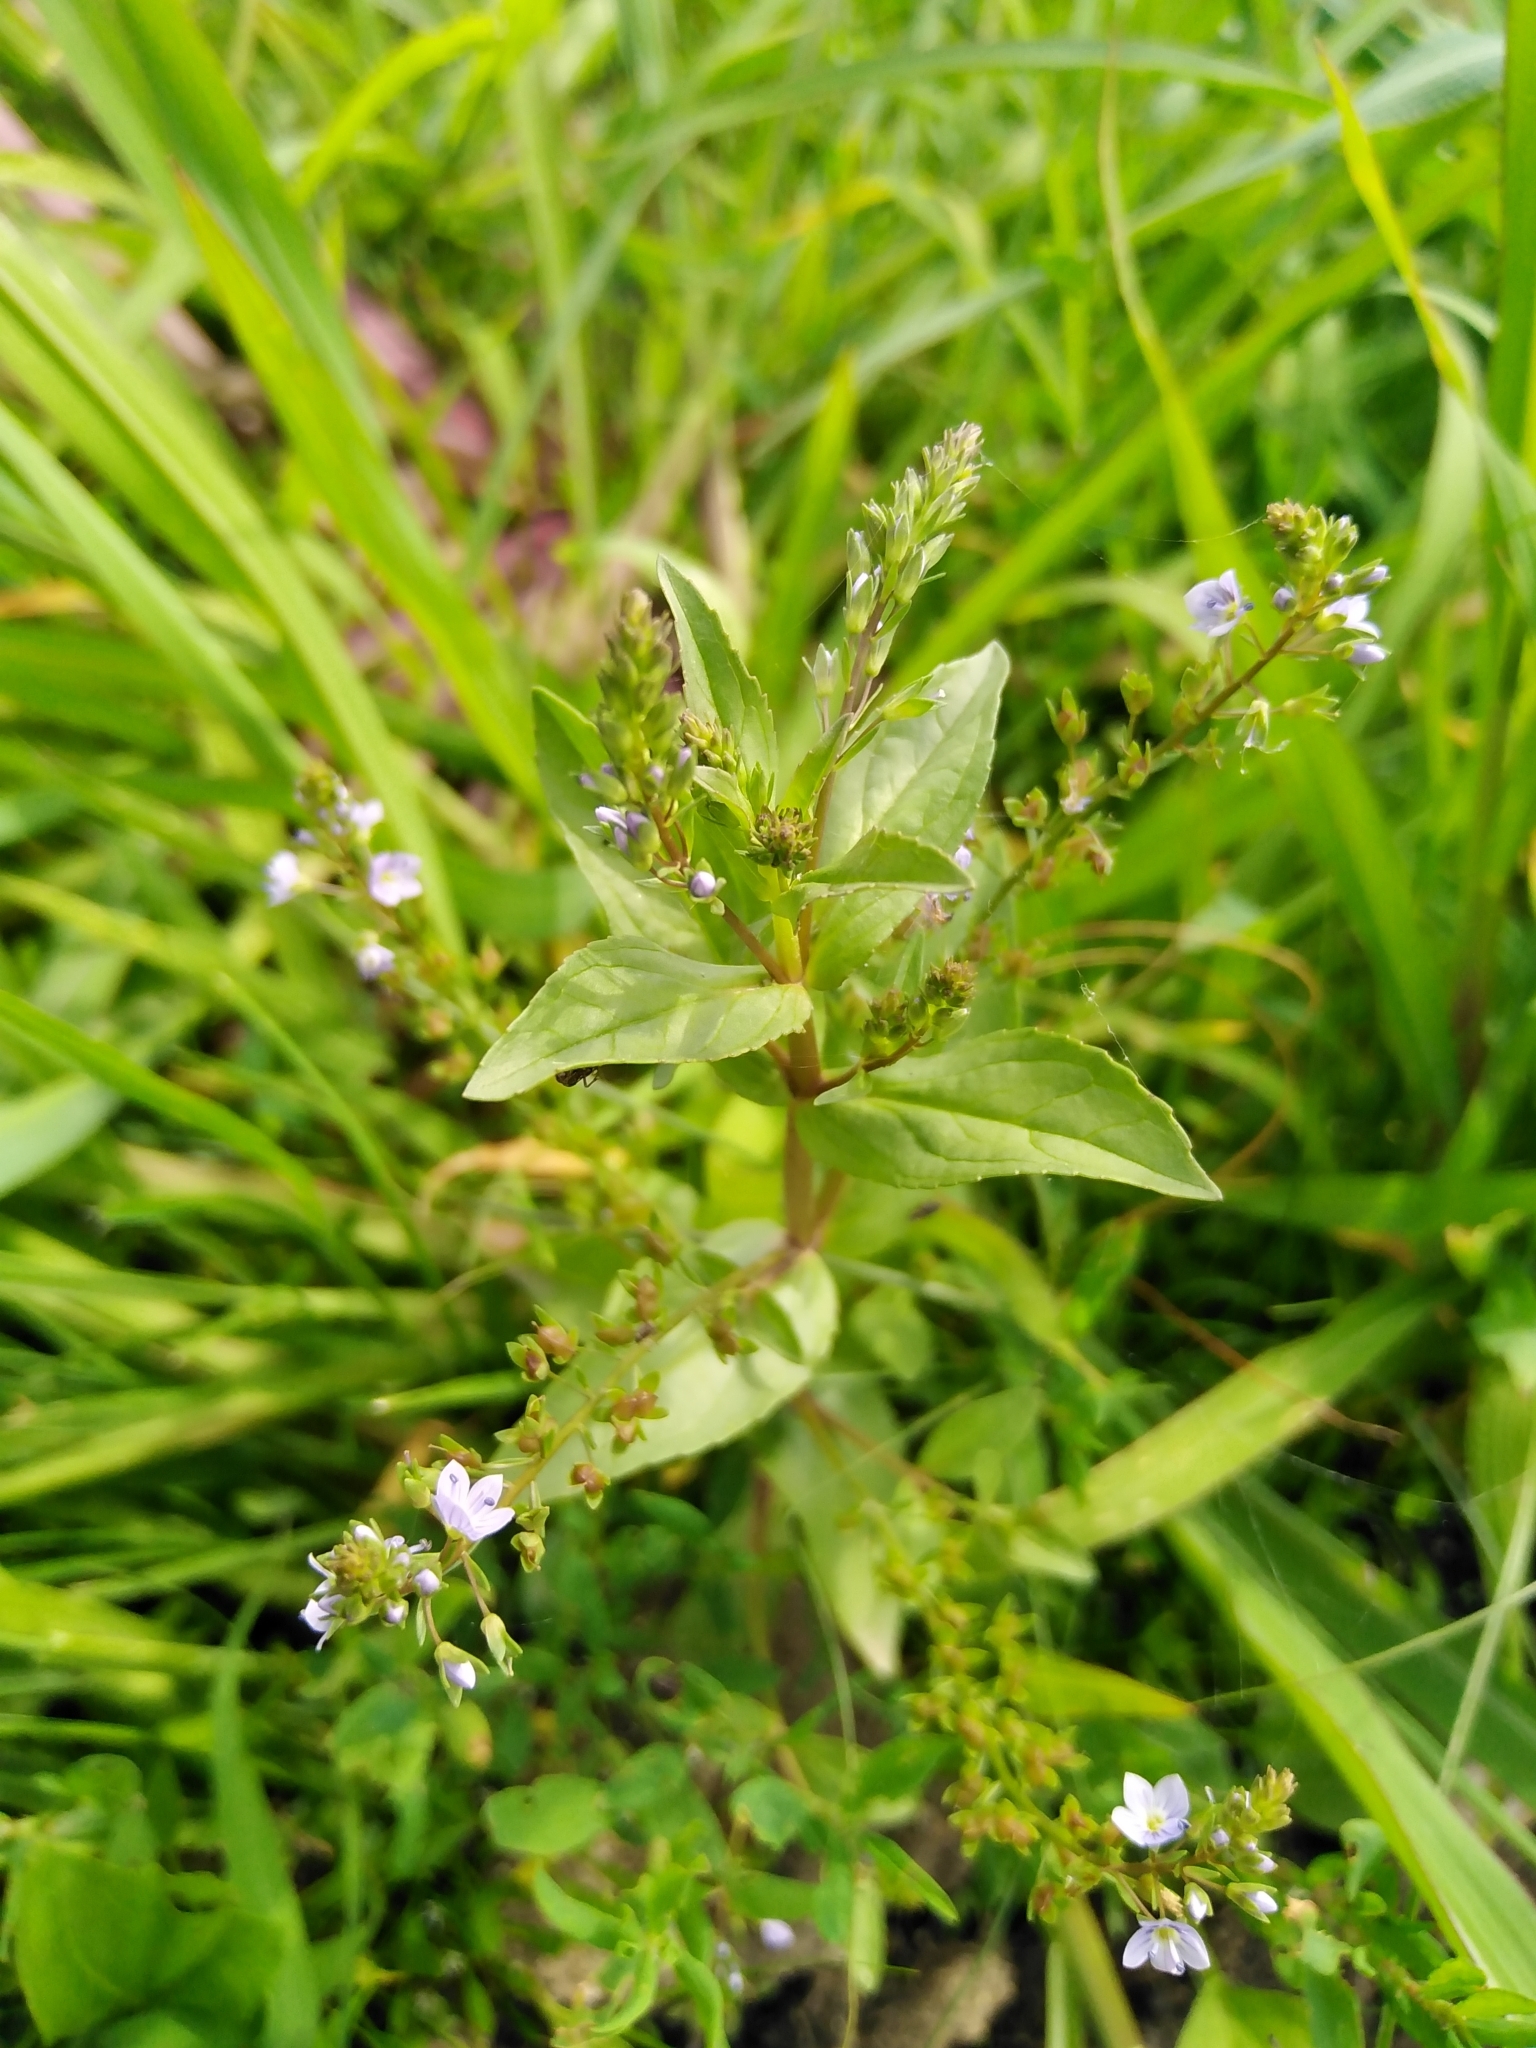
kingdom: Plantae
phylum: Tracheophyta
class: Magnoliopsida
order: Lamiales
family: Plantaginaceae
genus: Veronica
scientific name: Veronica anagallis-aquatica
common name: Water speedwell
